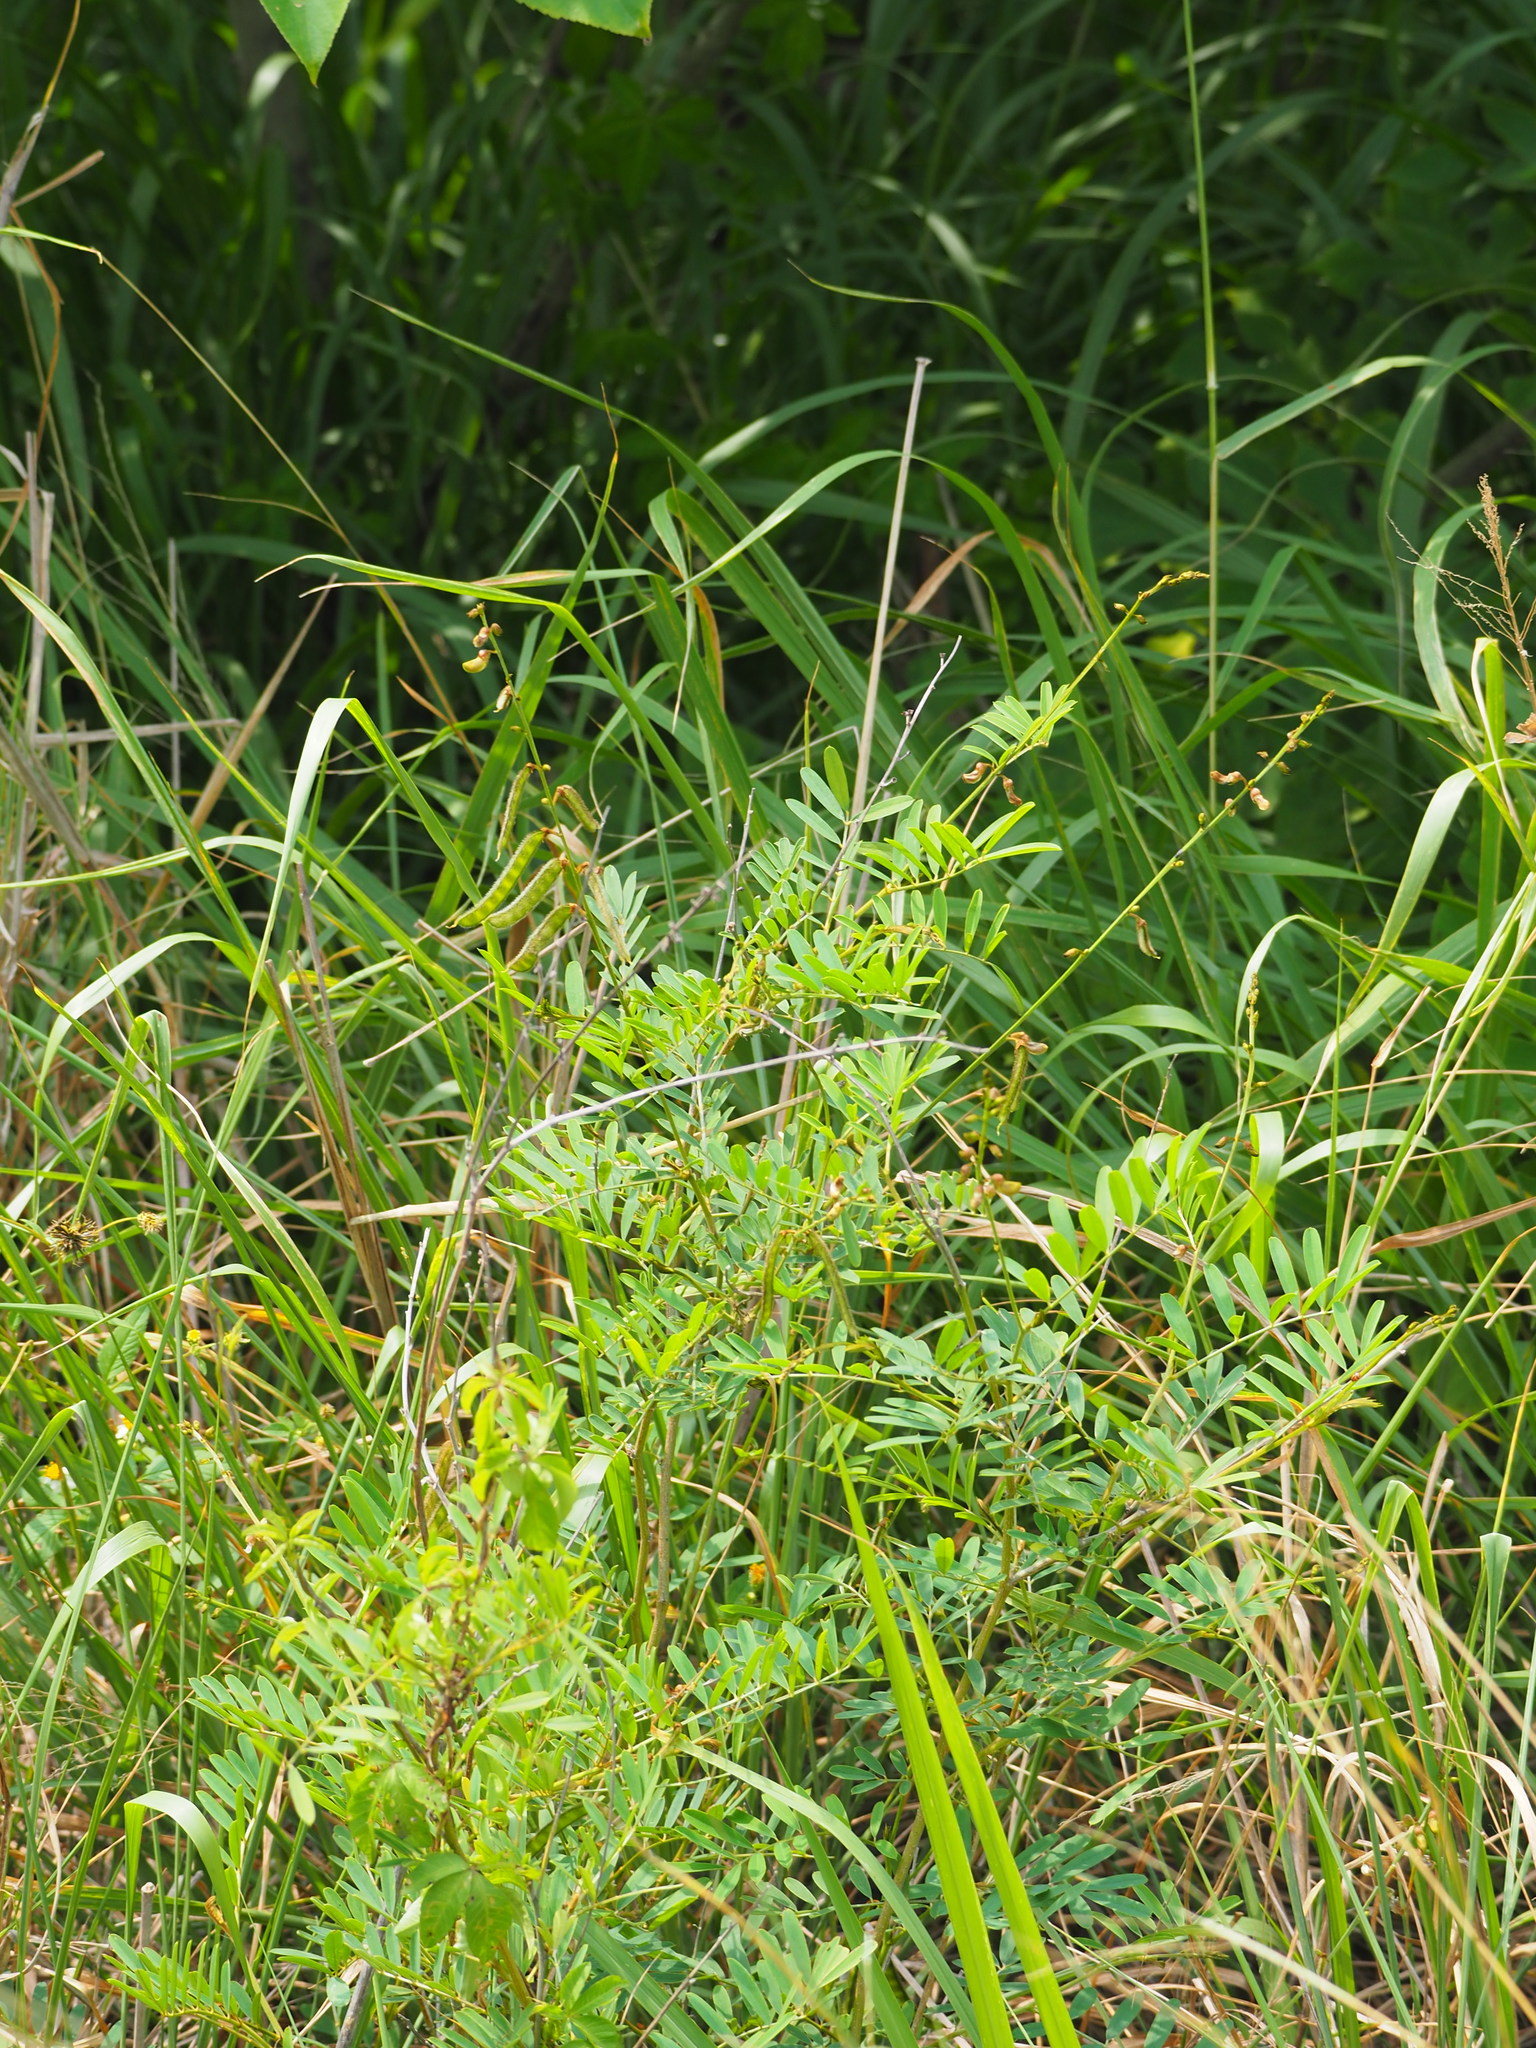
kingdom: Plantae
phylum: Tracheophyta
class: Magnoliopsida
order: Fabales
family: Fabaceae
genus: Tephrosia
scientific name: Tephrosia noctiflora
